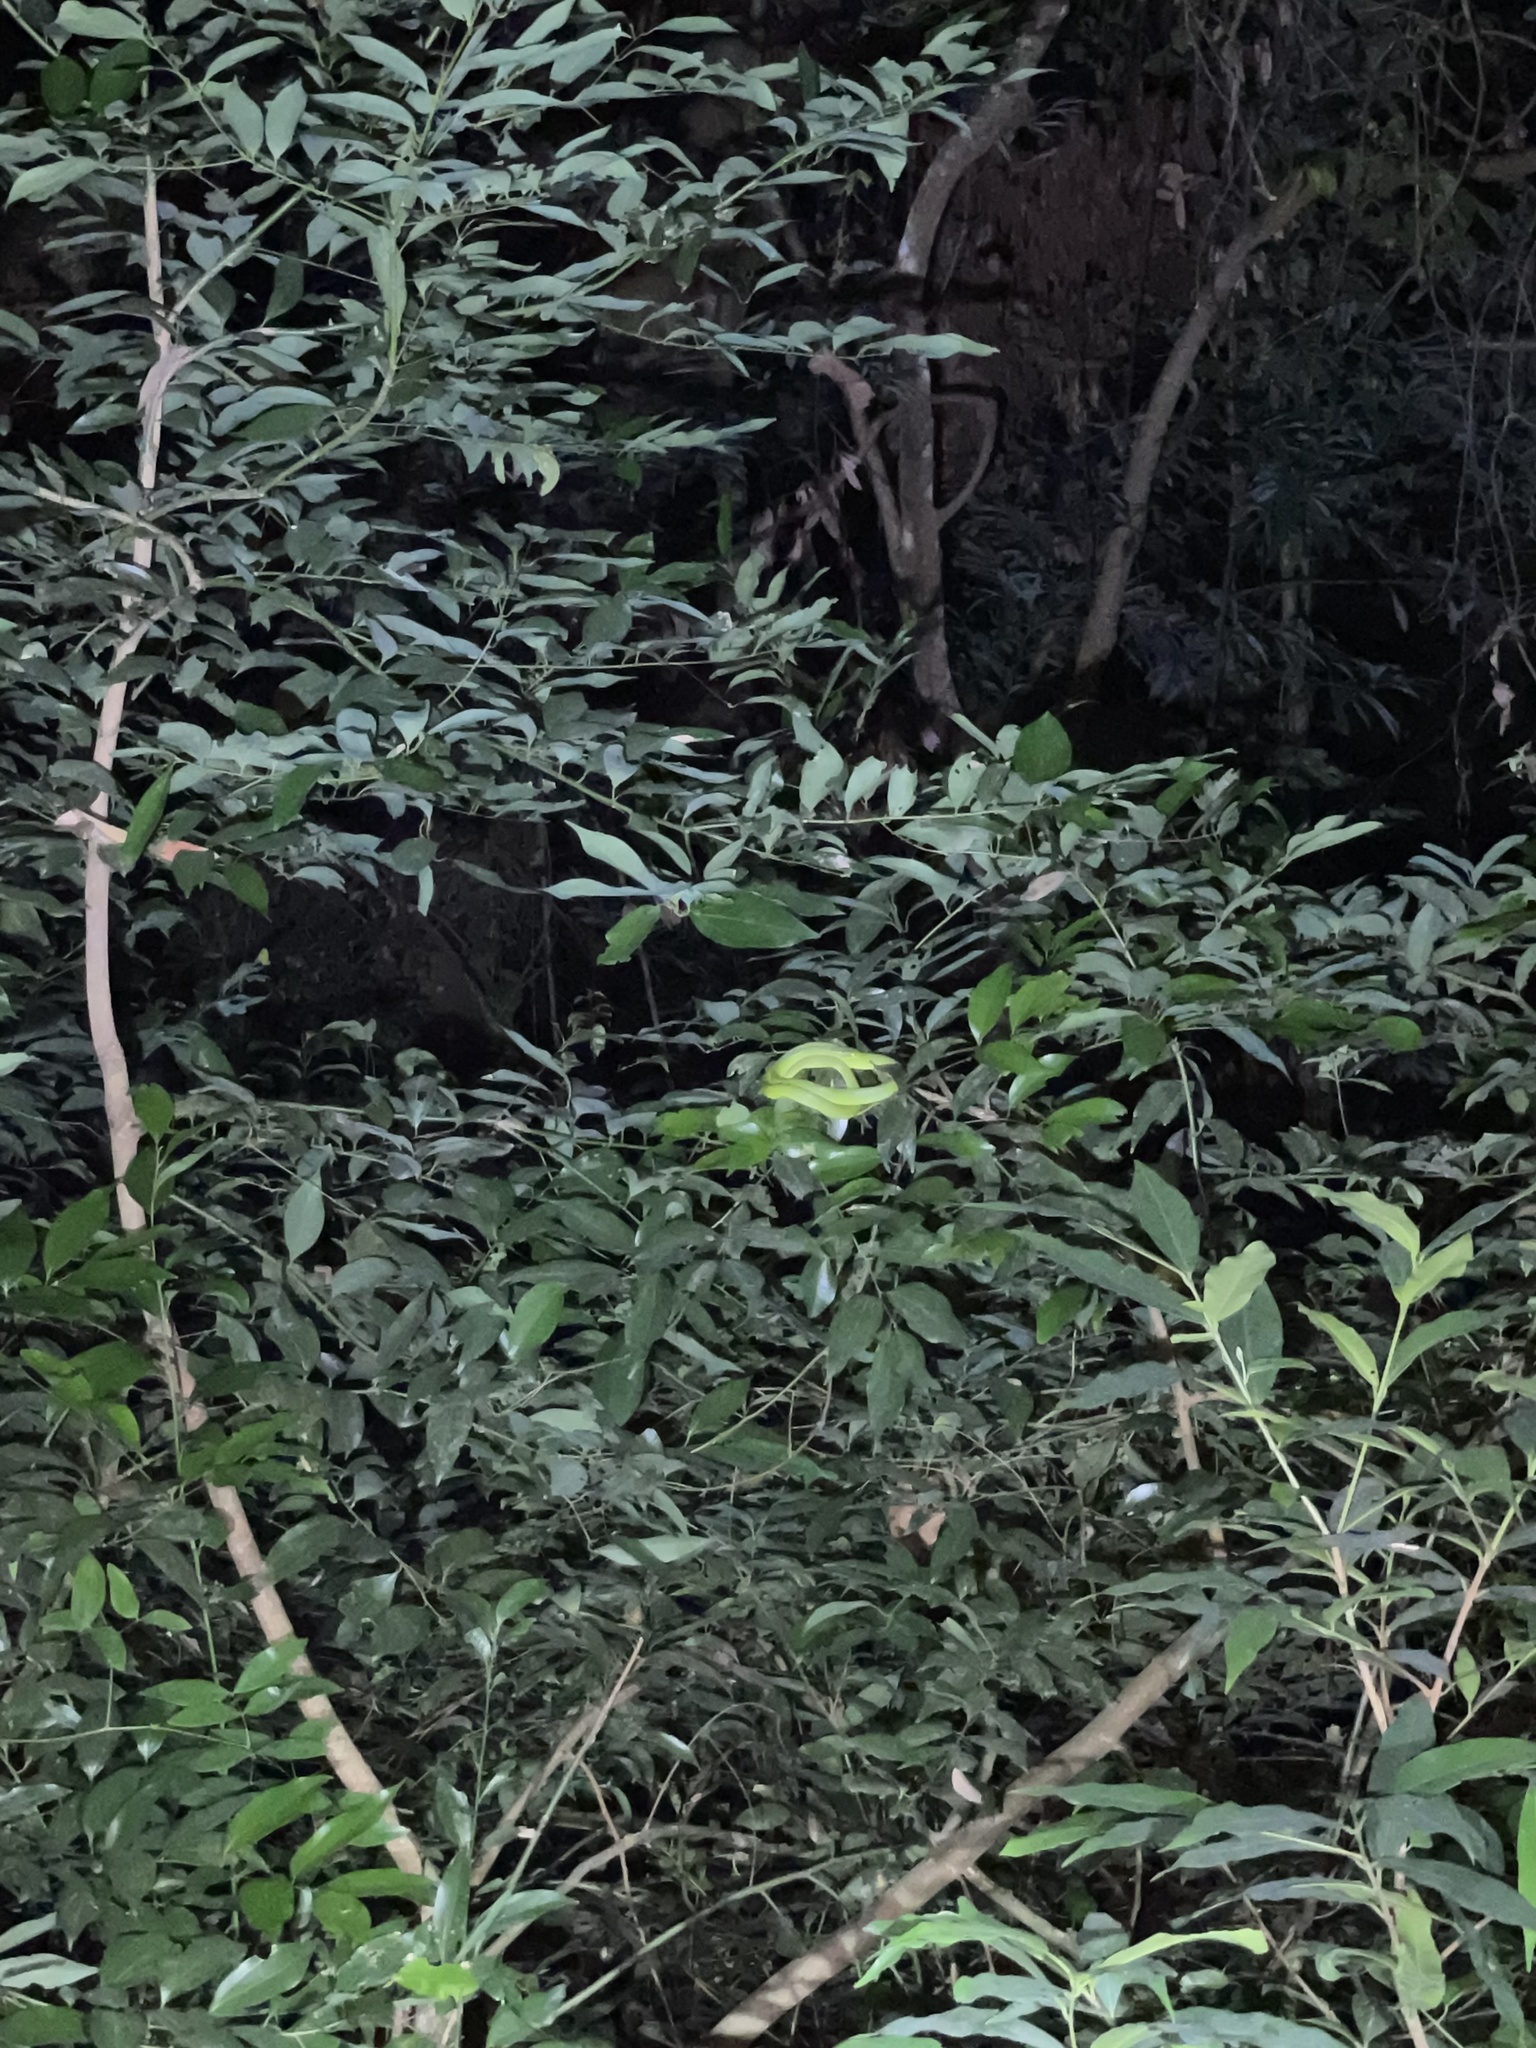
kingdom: Animalia
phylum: Chordata
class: Squamata
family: Colubridae
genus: Ptyas
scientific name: Ptyas major
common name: Chinese green snake
